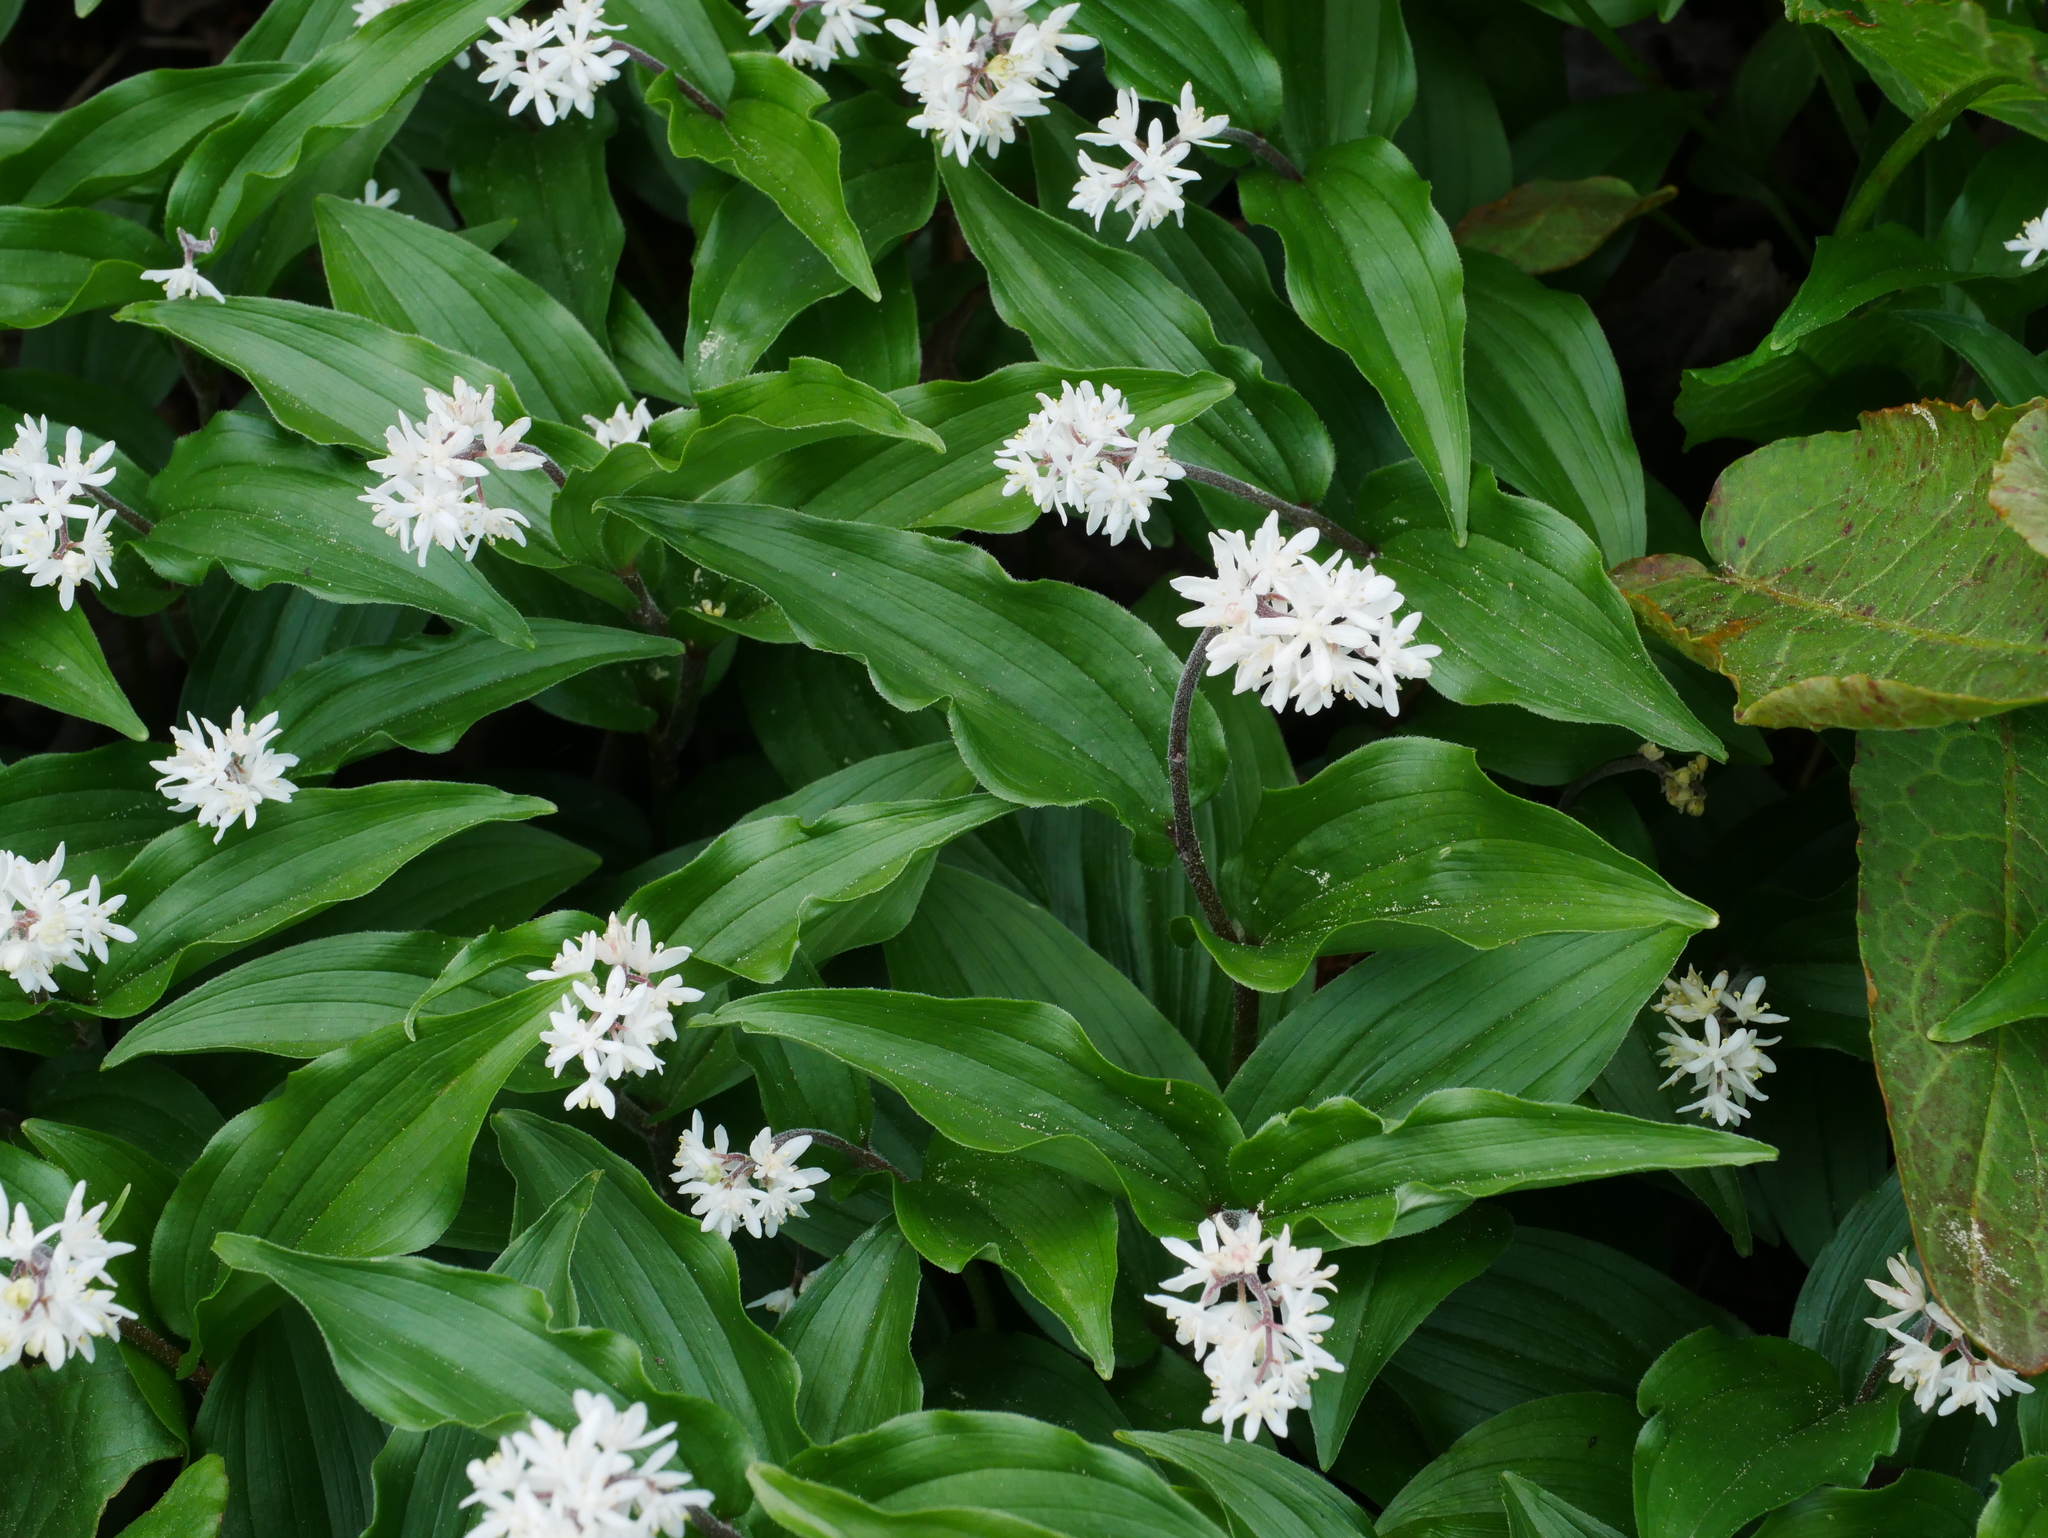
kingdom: Plantae
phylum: Tracheophyta
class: Liliopsida
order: Asparagales
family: Asparagaceae
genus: Maianthemum
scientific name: Maianthemum formosanum
